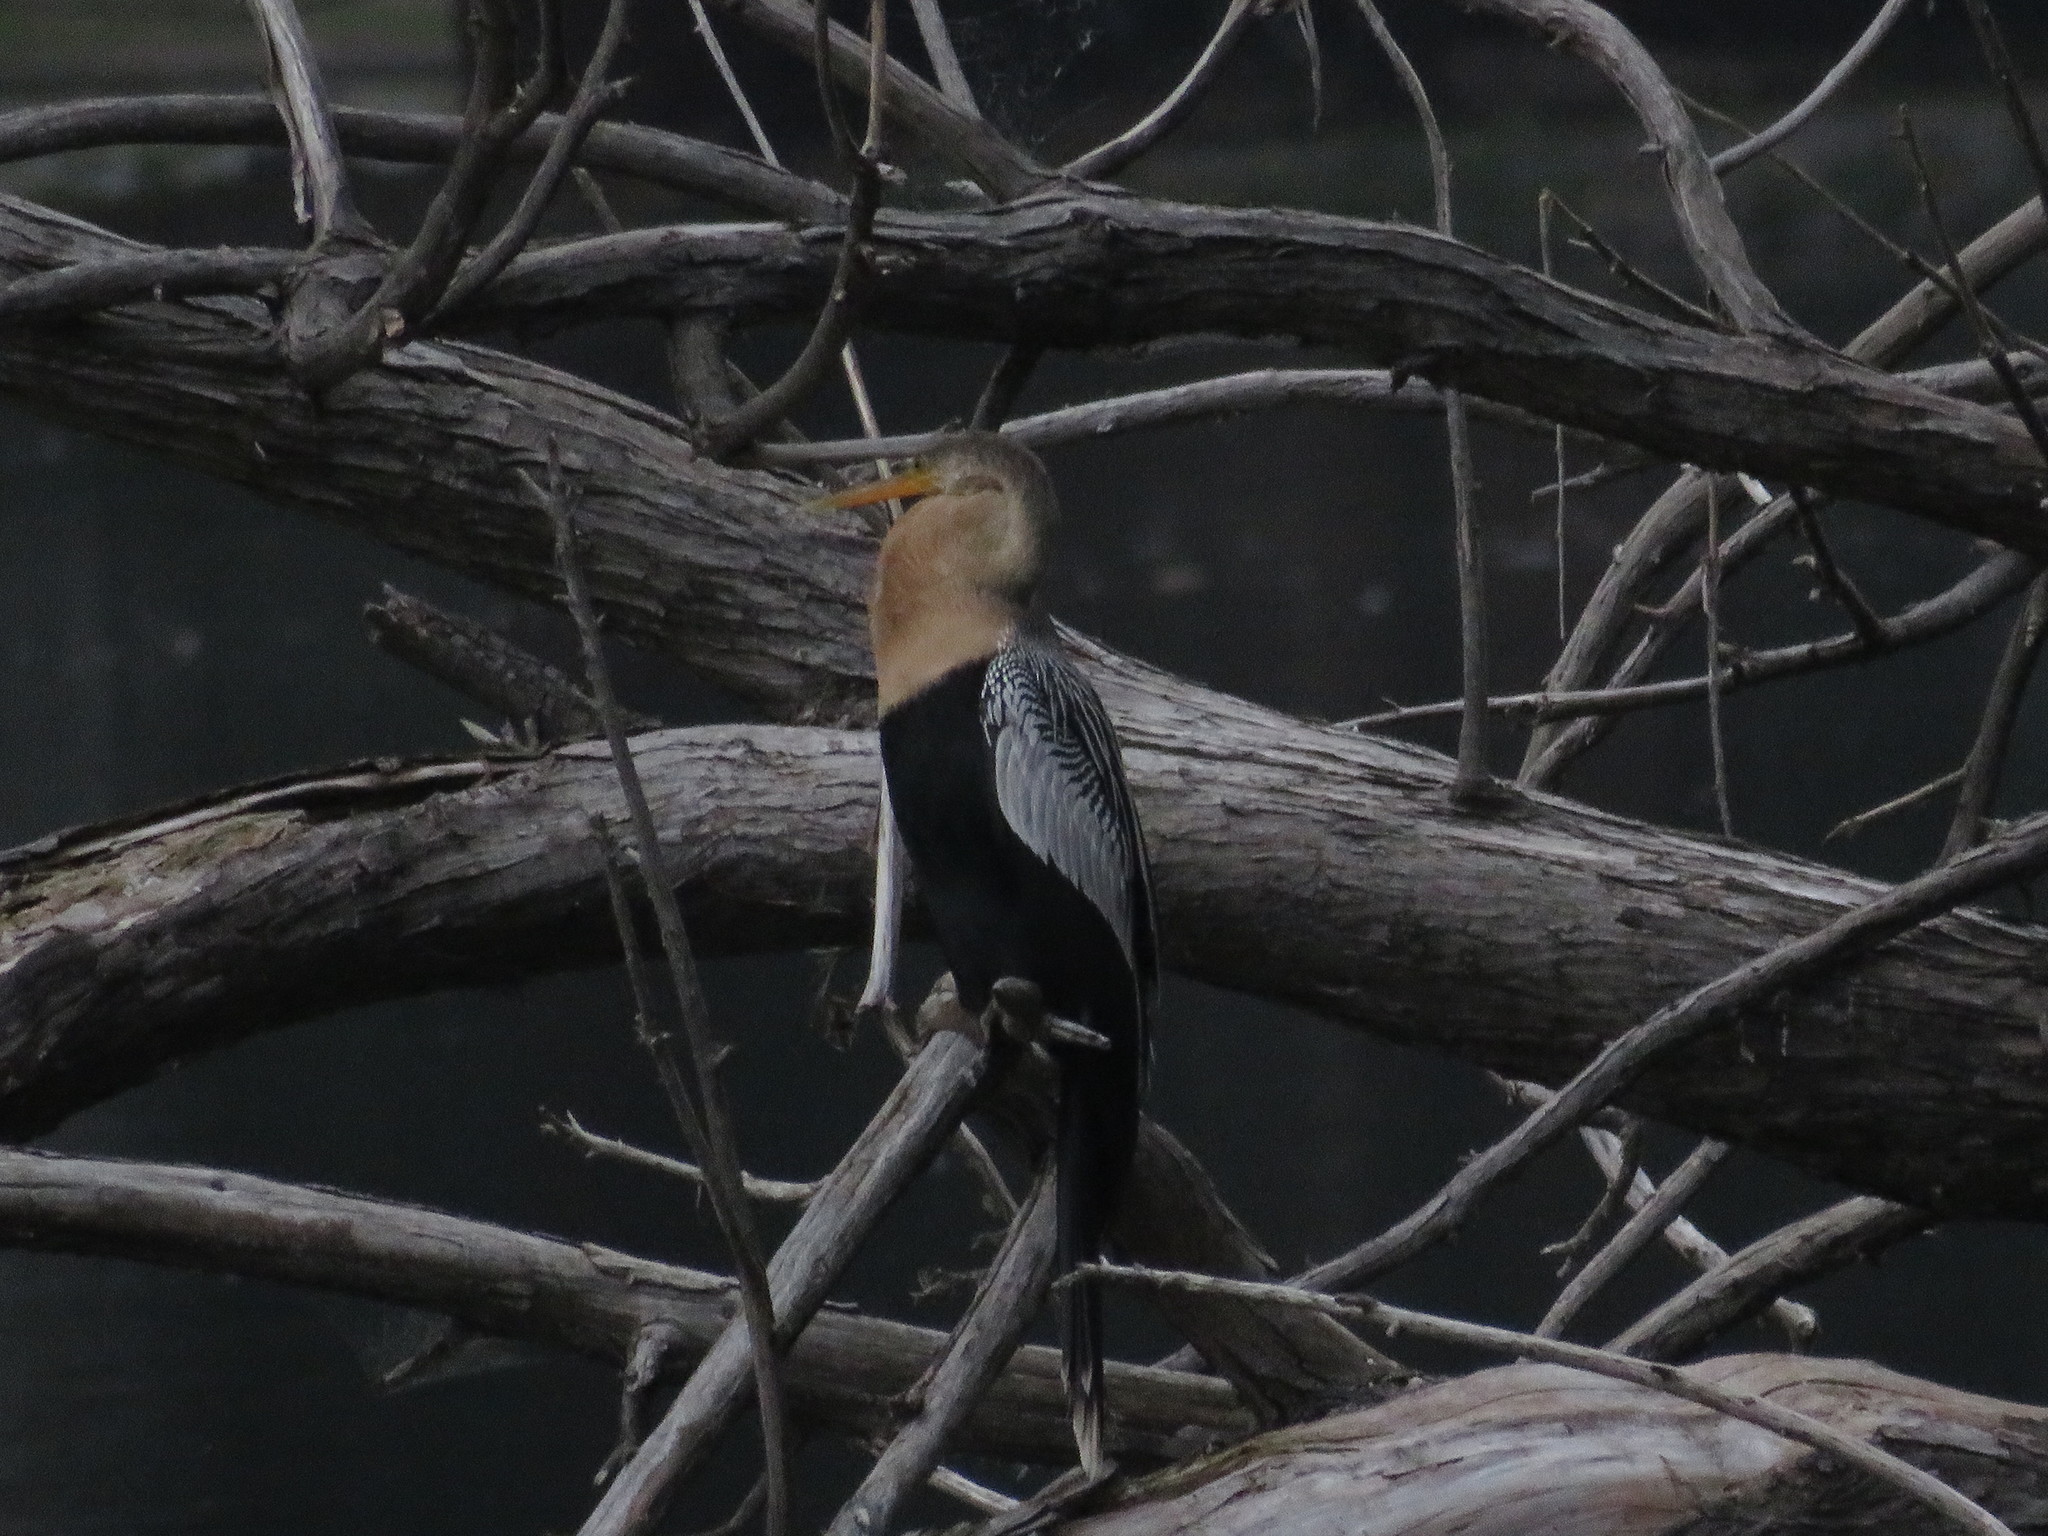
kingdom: Animalia
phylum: Chordata
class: Aves
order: Suliformes
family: Anhingidae
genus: Anhinga
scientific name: Anhinga anhinga
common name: Anhinga
